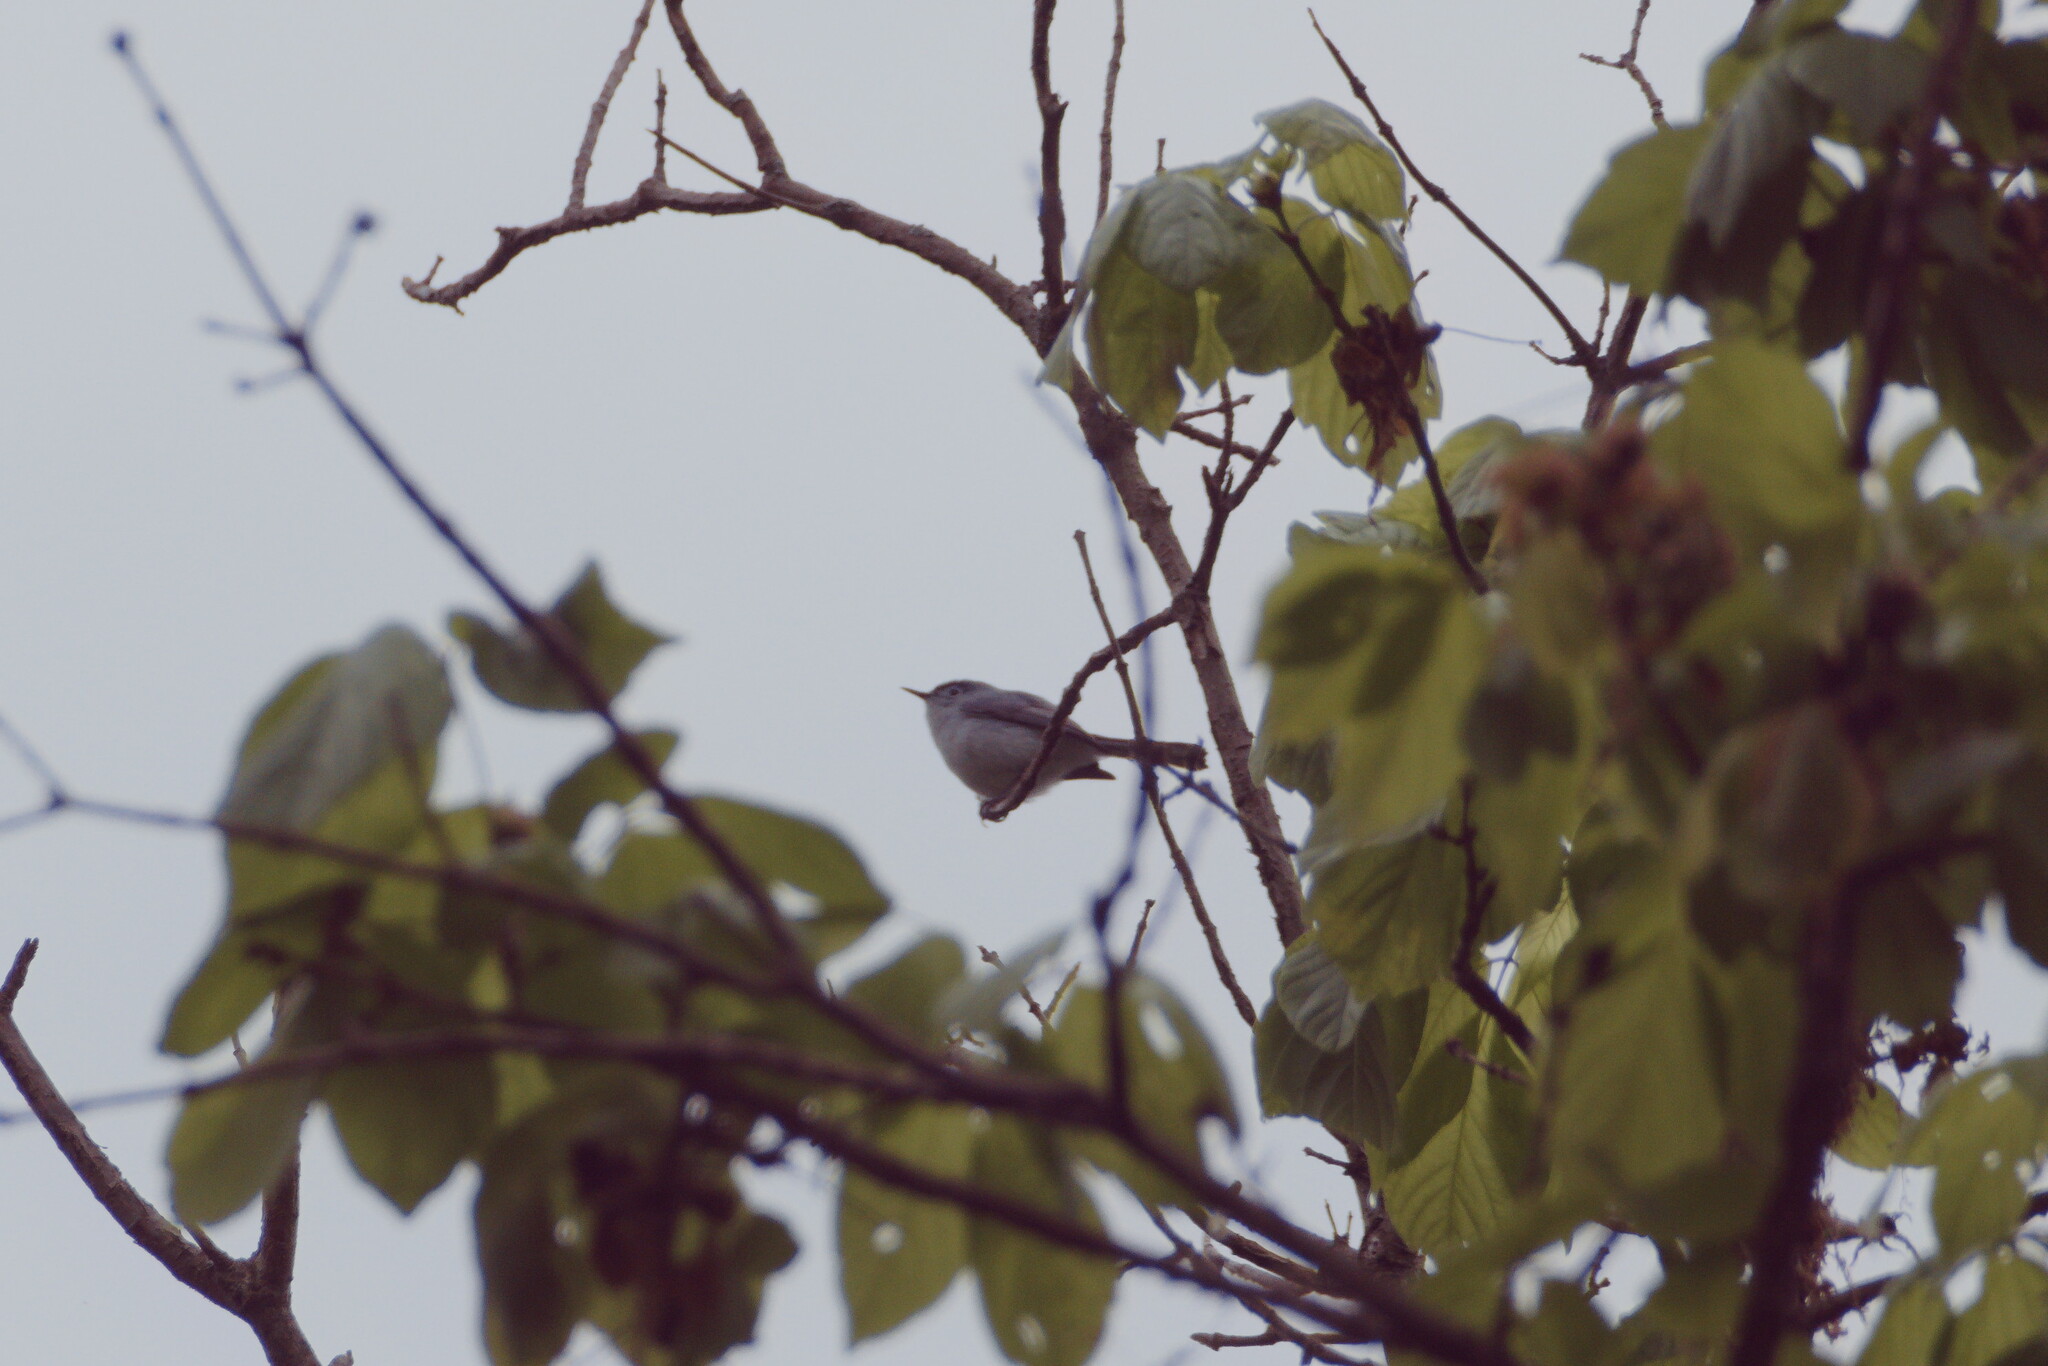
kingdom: Animalia
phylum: Chordata
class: Aves
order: Passeriformes
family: Polioptilidae
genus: Polioptila
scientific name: Polioptila caerulea
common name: Blue-gray gnatcatcher
